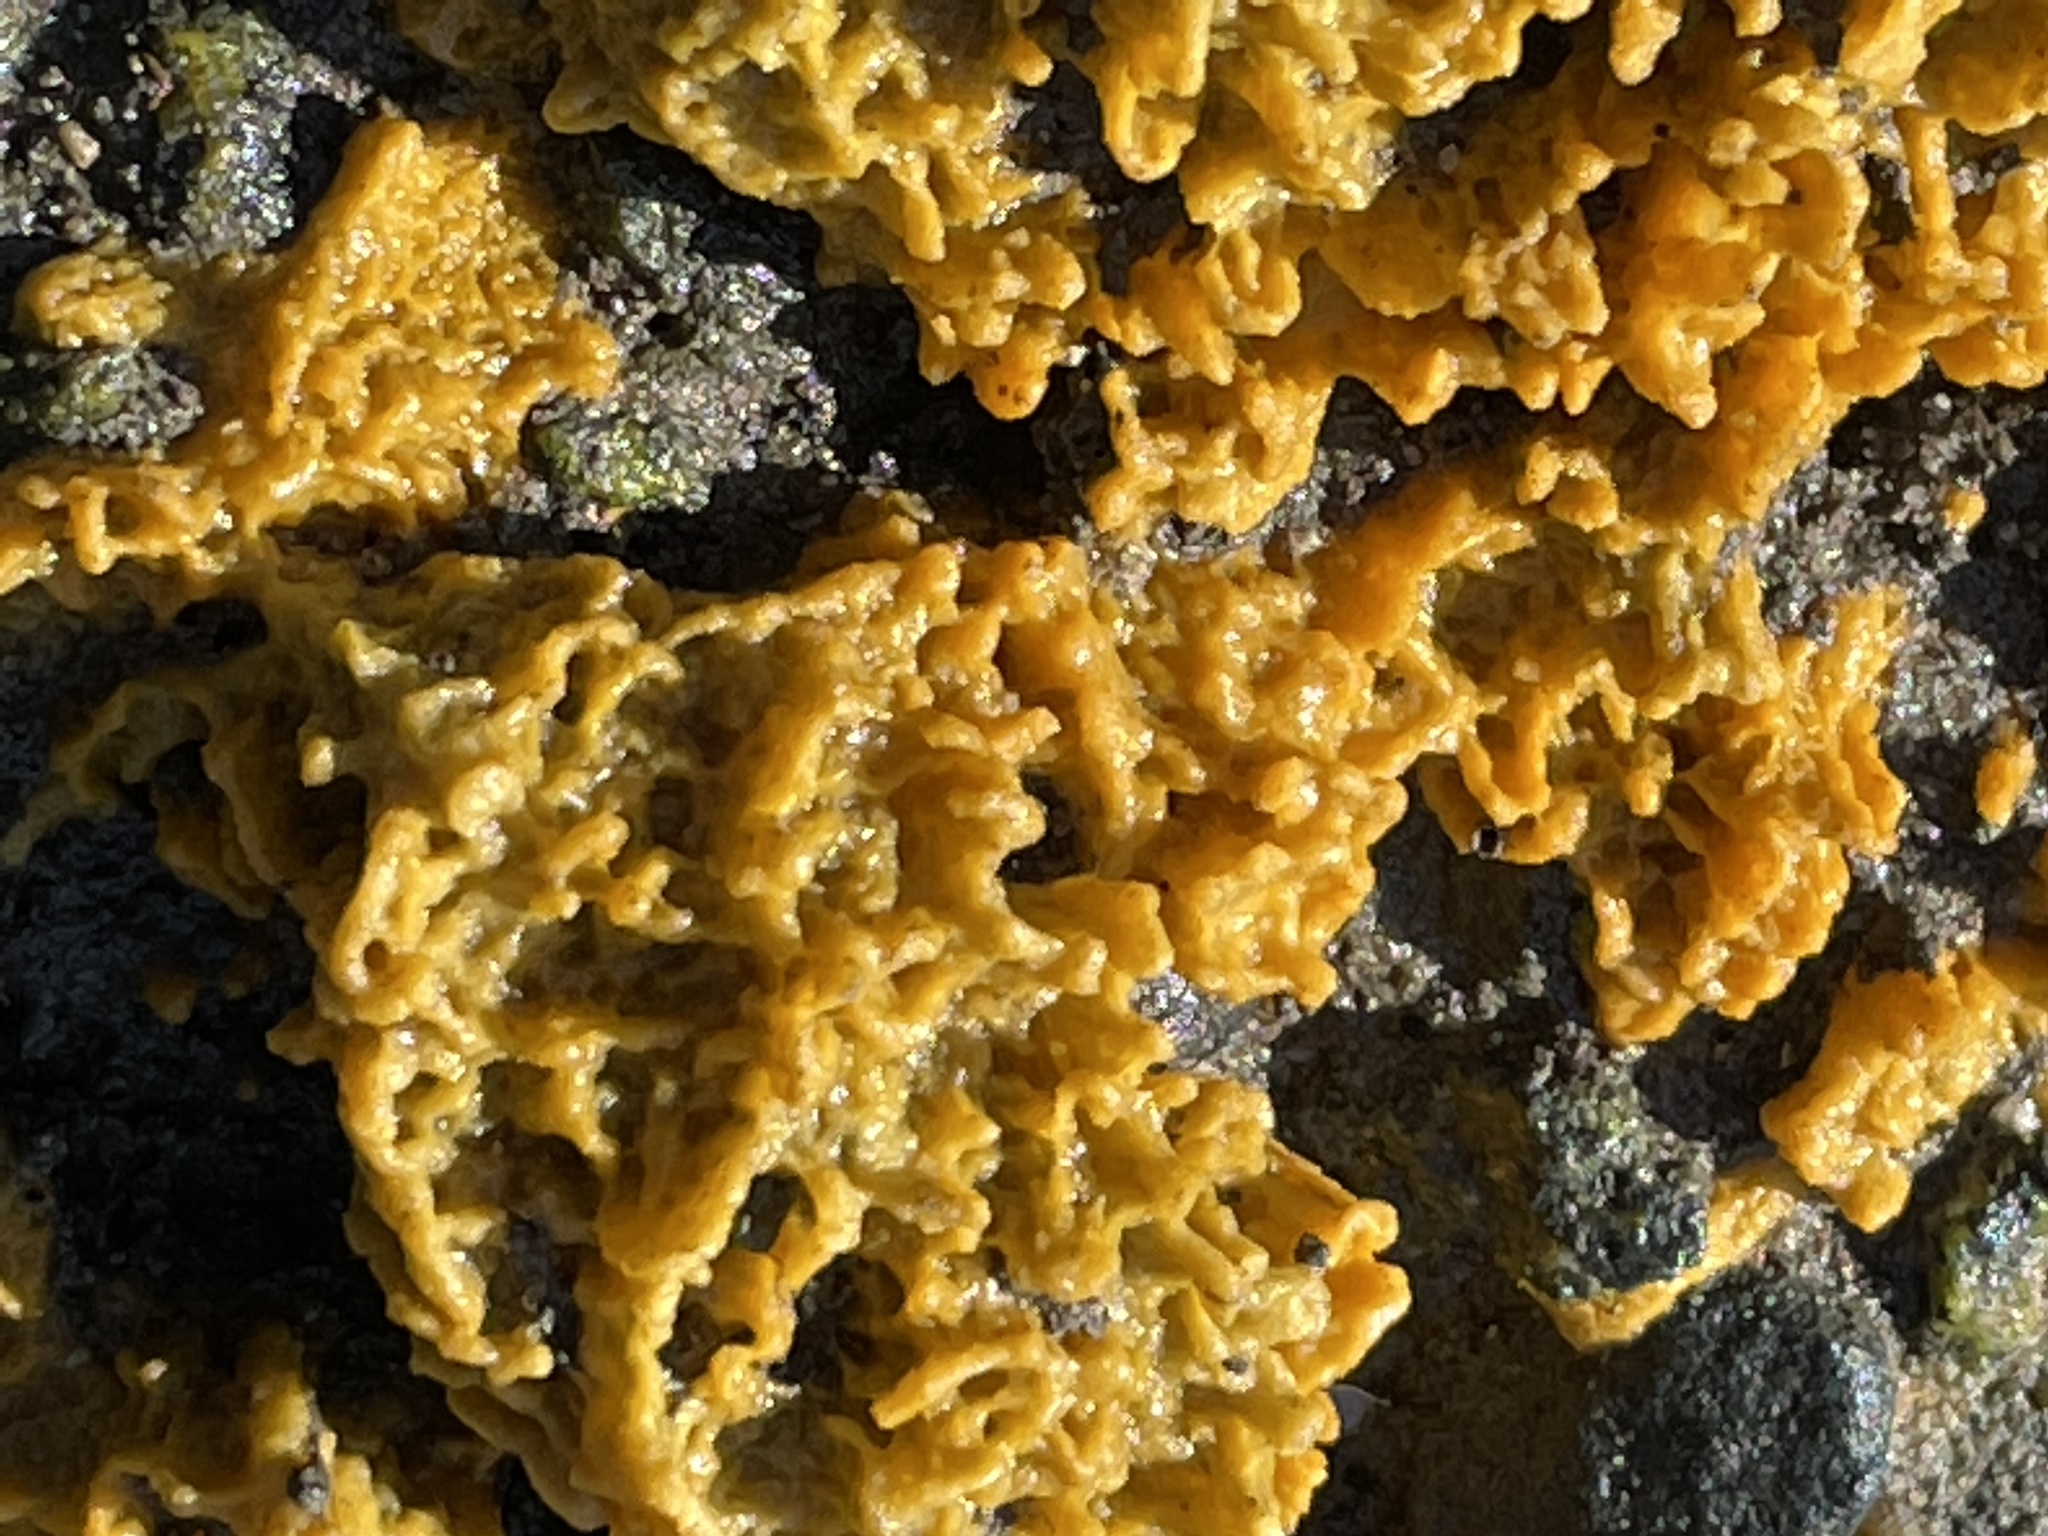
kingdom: Animalia
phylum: Porifera
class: Demospongiae
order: Suberitida
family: Halichondriidae
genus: Hymeniacidon
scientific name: Hymeniacidon perlevis
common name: Crumb-of-bread sponge
